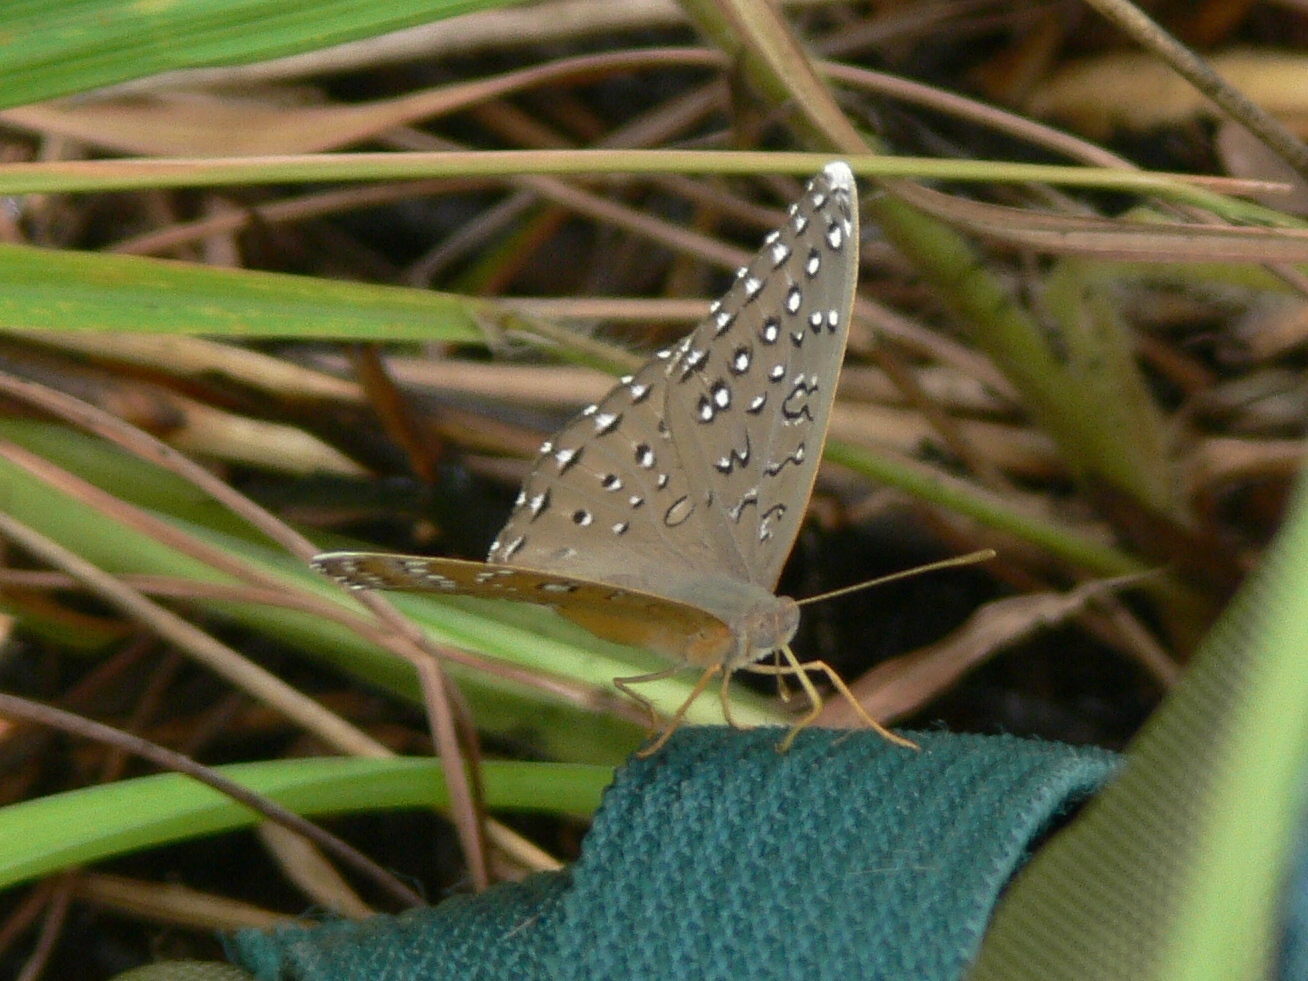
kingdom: Animalia
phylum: Arthropoda
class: Insecta
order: Lepidoptera
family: Nymphalidae
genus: Hamanumida
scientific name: Hamanumida daedalus
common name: Guinea-fowl butterfly
